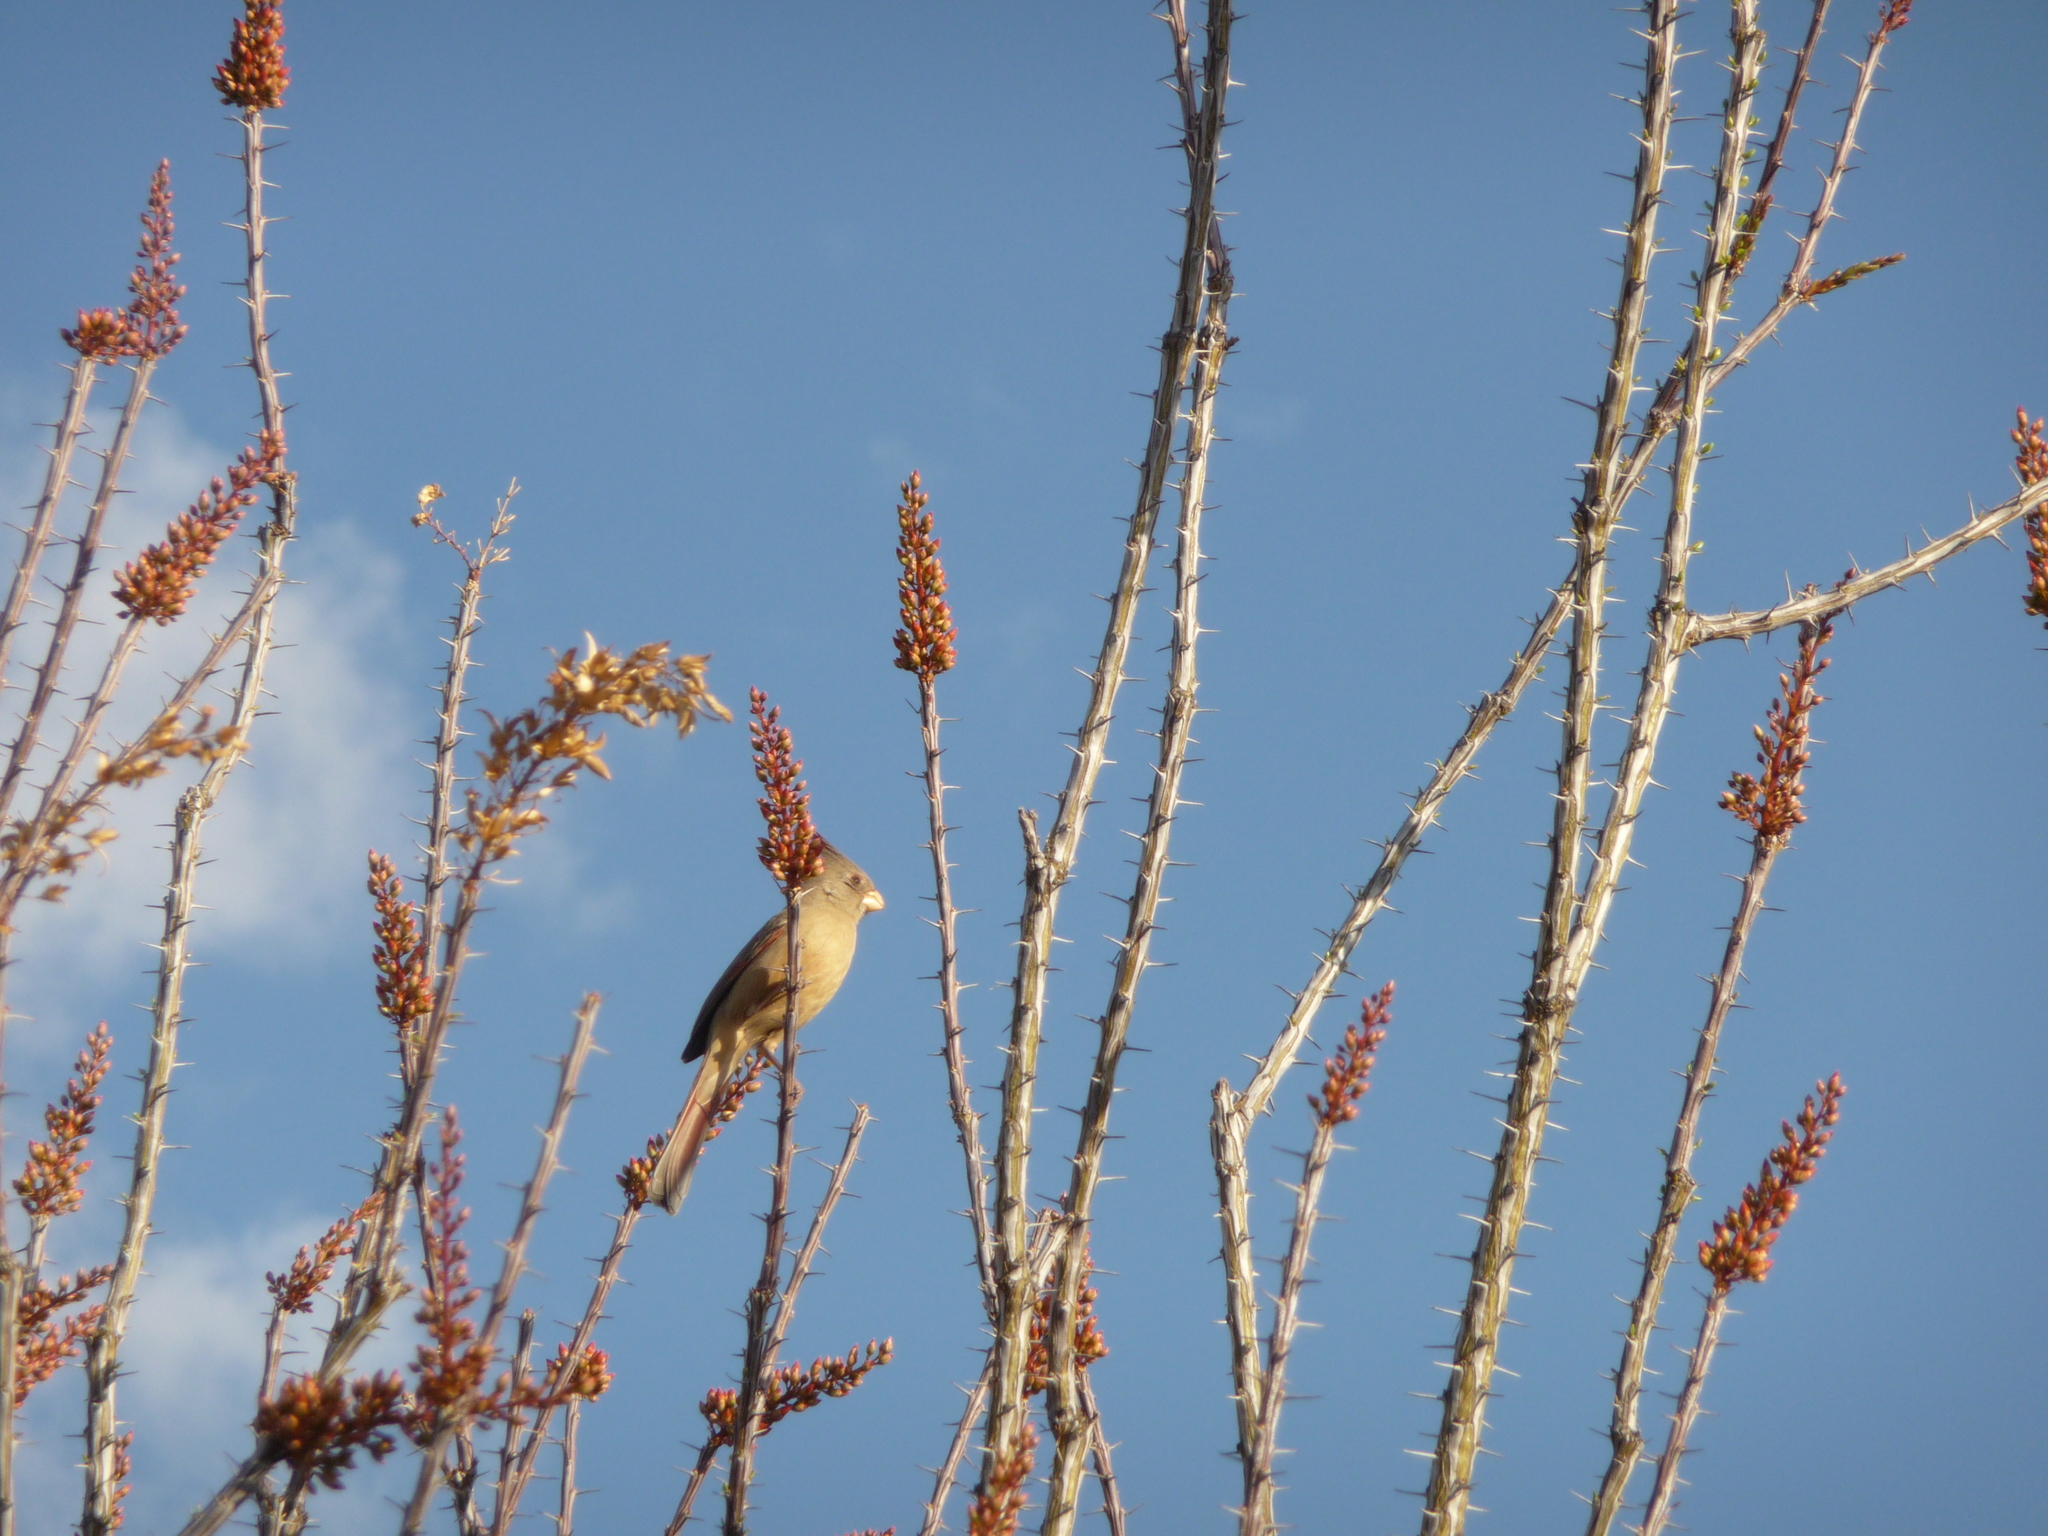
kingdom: Animalia
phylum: Chordata
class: Aves
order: Passeriformes
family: Cardinalidae
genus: Cardinalis
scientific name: Cardinalis sinuatus
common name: Pyrrhuloxia
